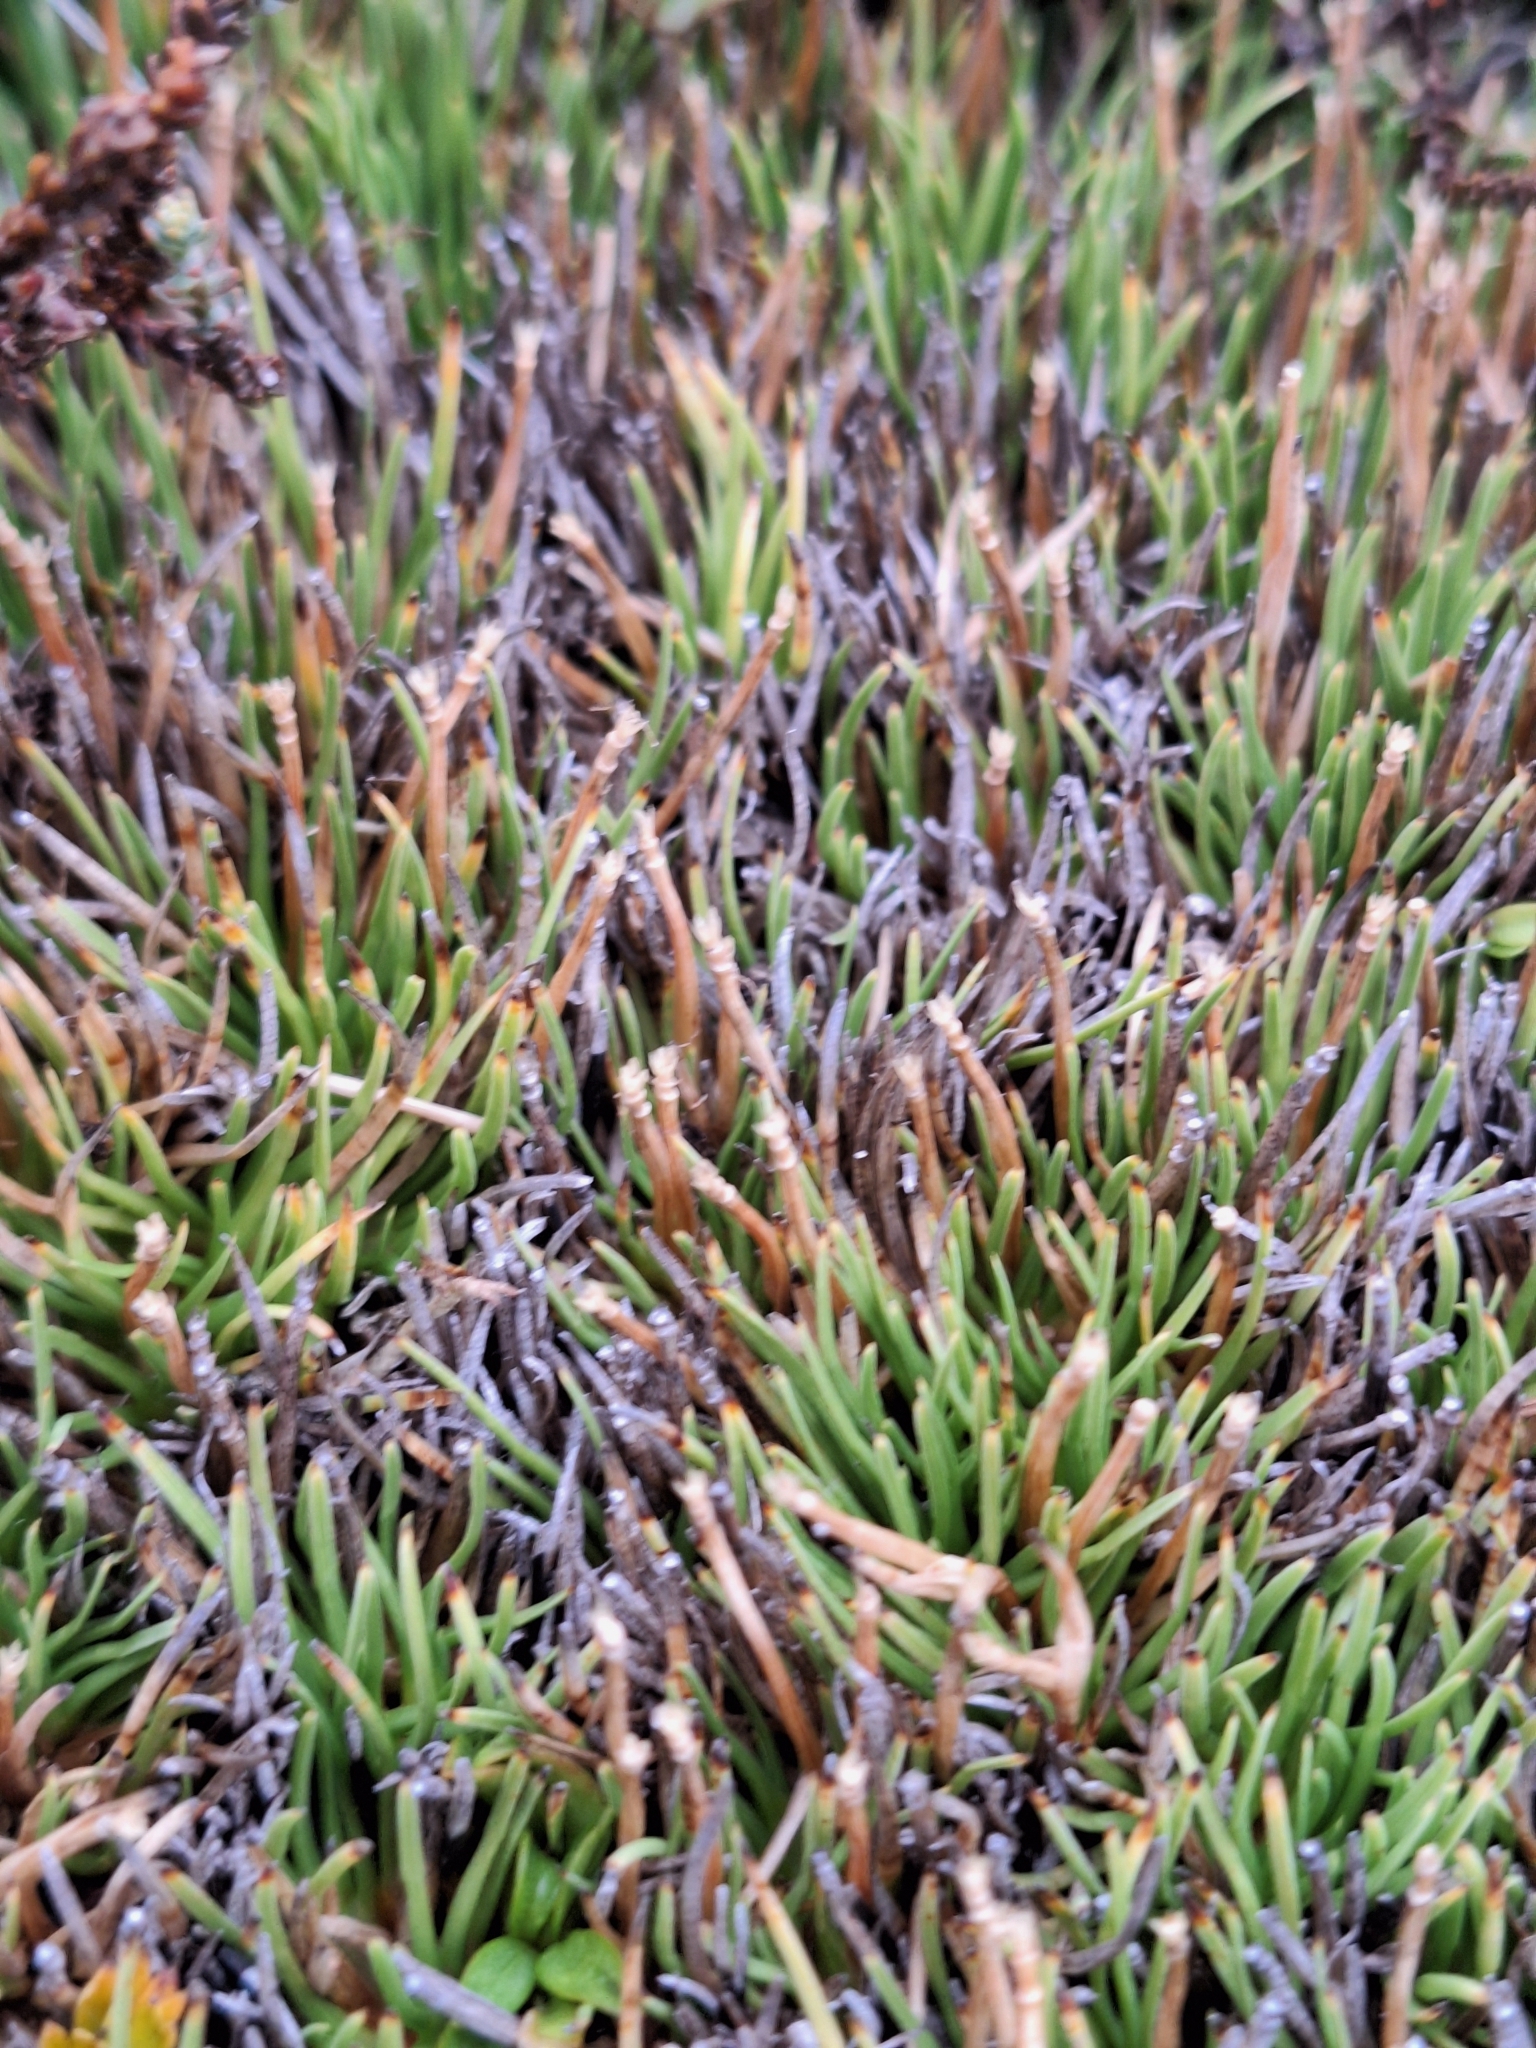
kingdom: Plantae
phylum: Tracheophyta
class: Liliopsida
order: Poales
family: Cyperaceae
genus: Oreobolus
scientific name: Oreobolus pectinatus
